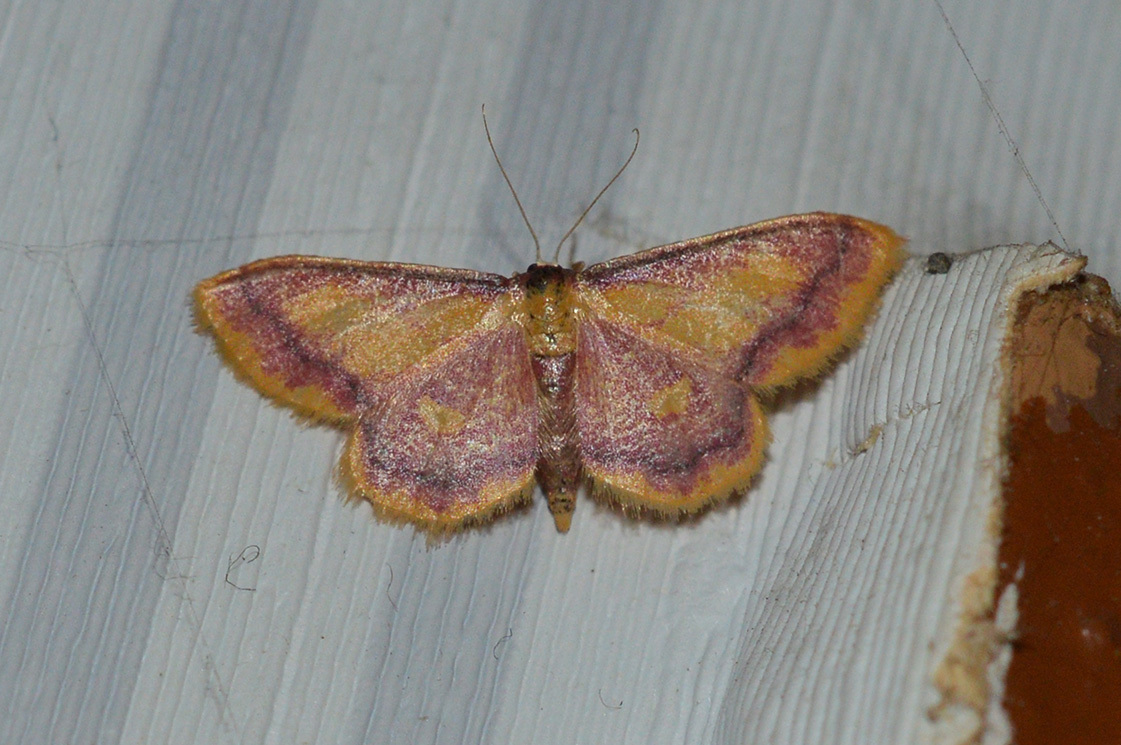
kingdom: Animalia
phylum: Arthropoda
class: Insecta
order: Lepidoptera
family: Geometridae
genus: Idaea
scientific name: Idaea muricata
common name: Purple-bordered gold
